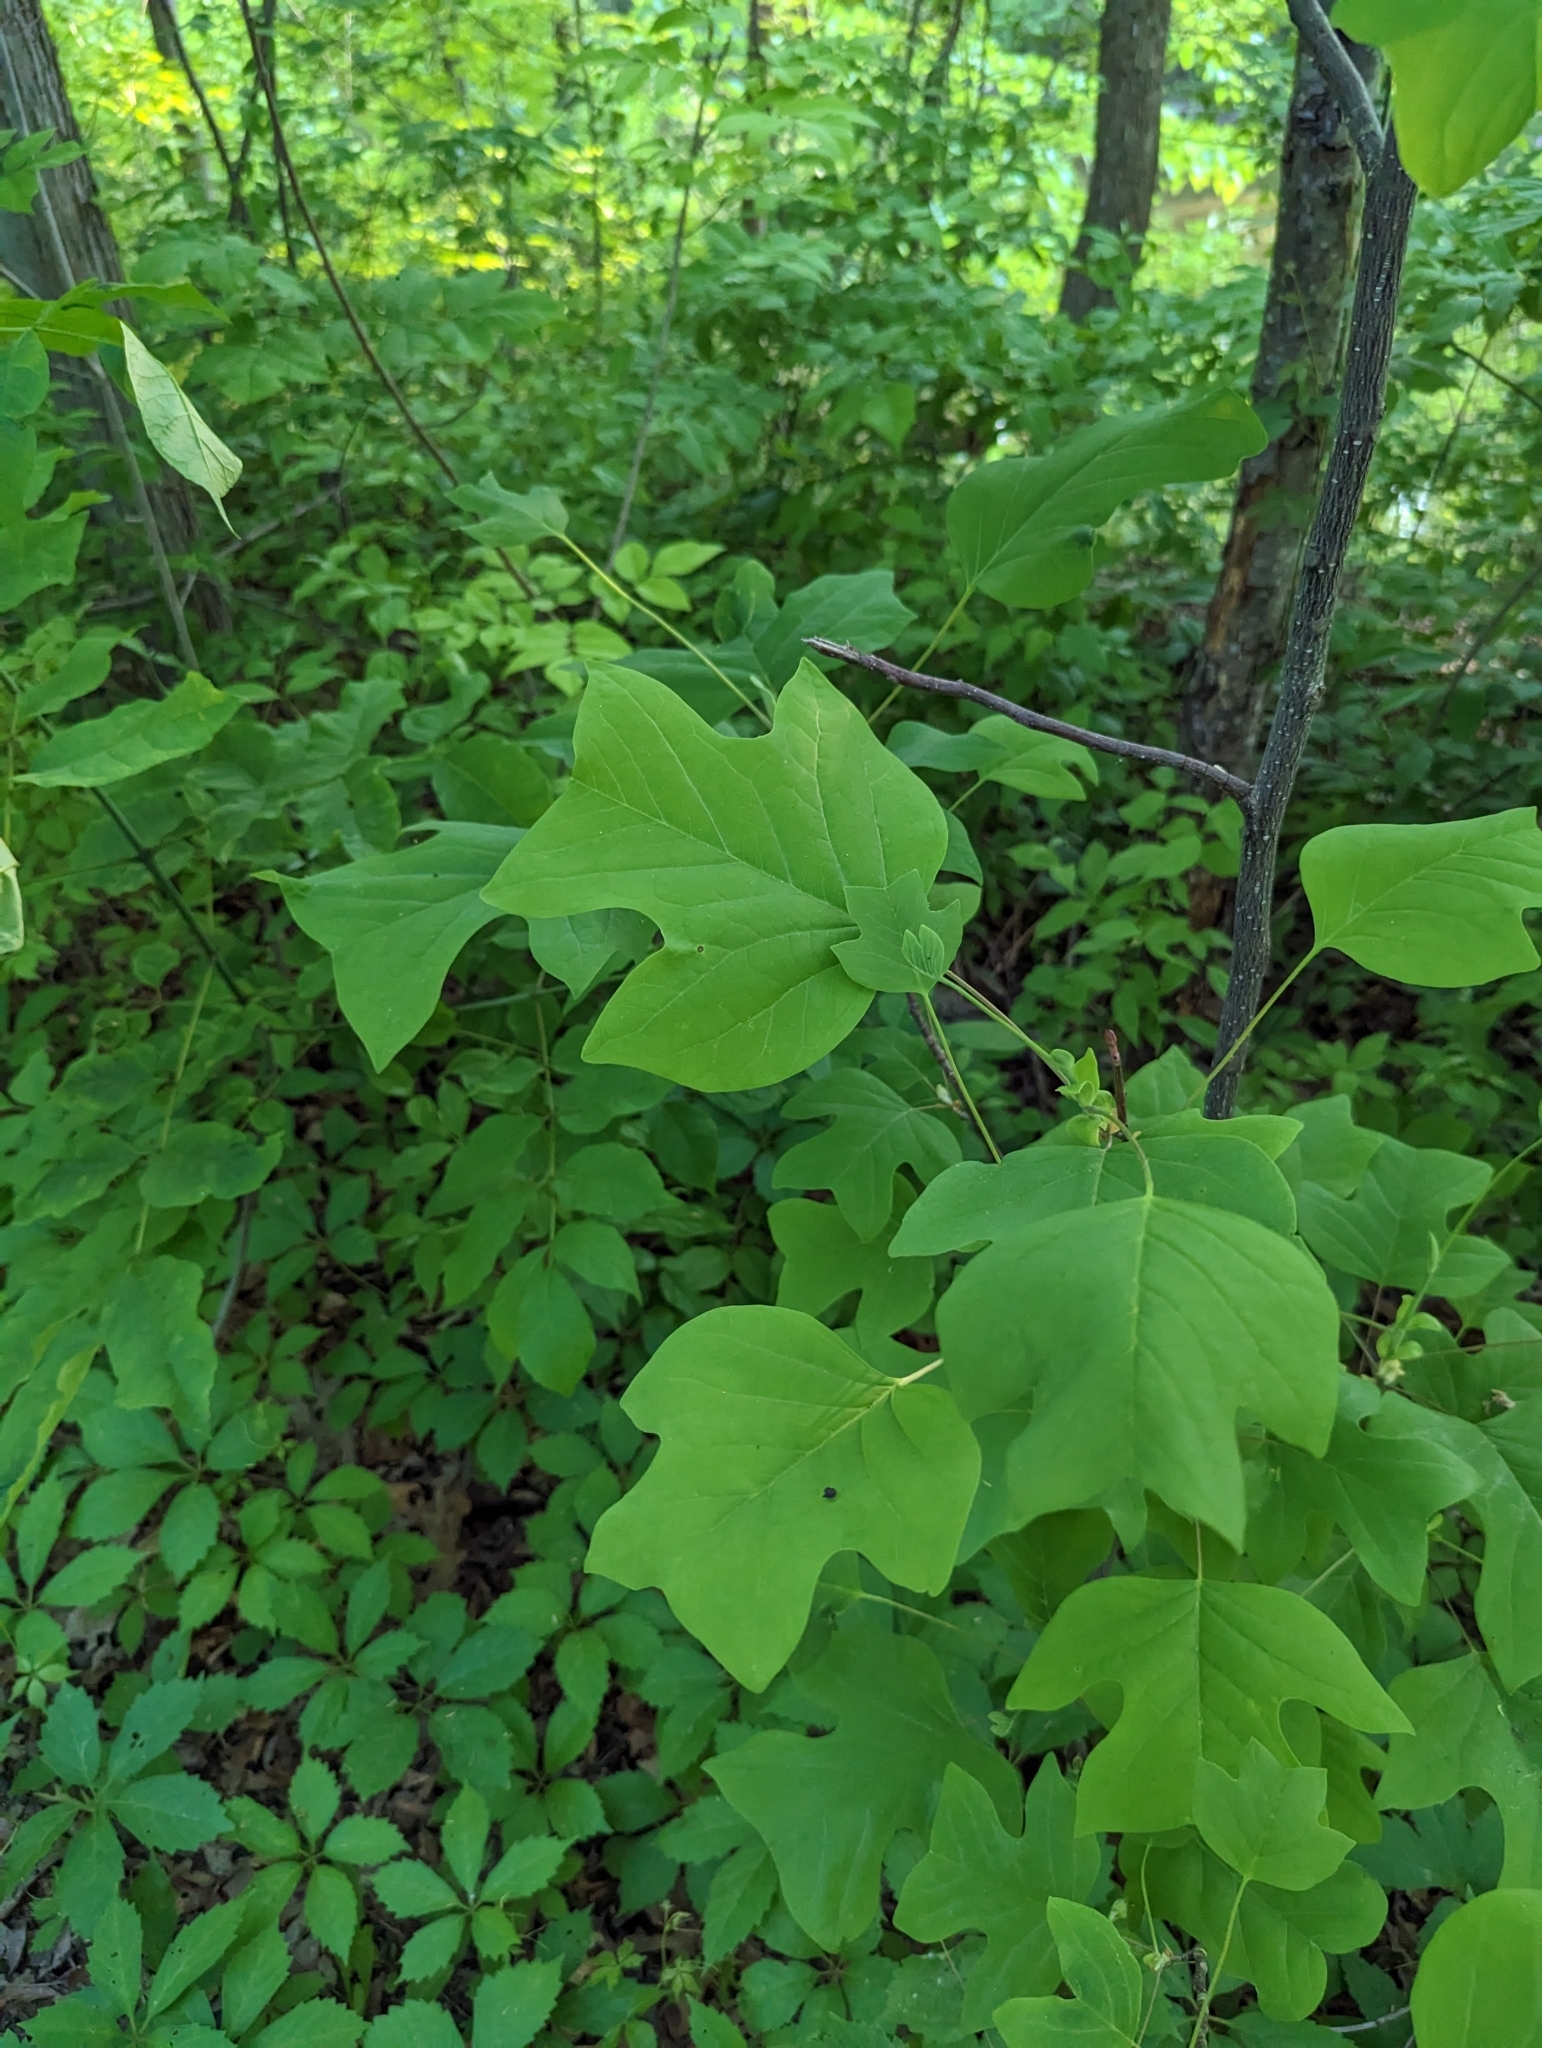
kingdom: Plantae
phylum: Tracheophyta
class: Magnoliopsida
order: Magnoliales
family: Magnoliaceae
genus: Liriodendron
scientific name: Liriodendron tulipifera
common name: Tulip tree
